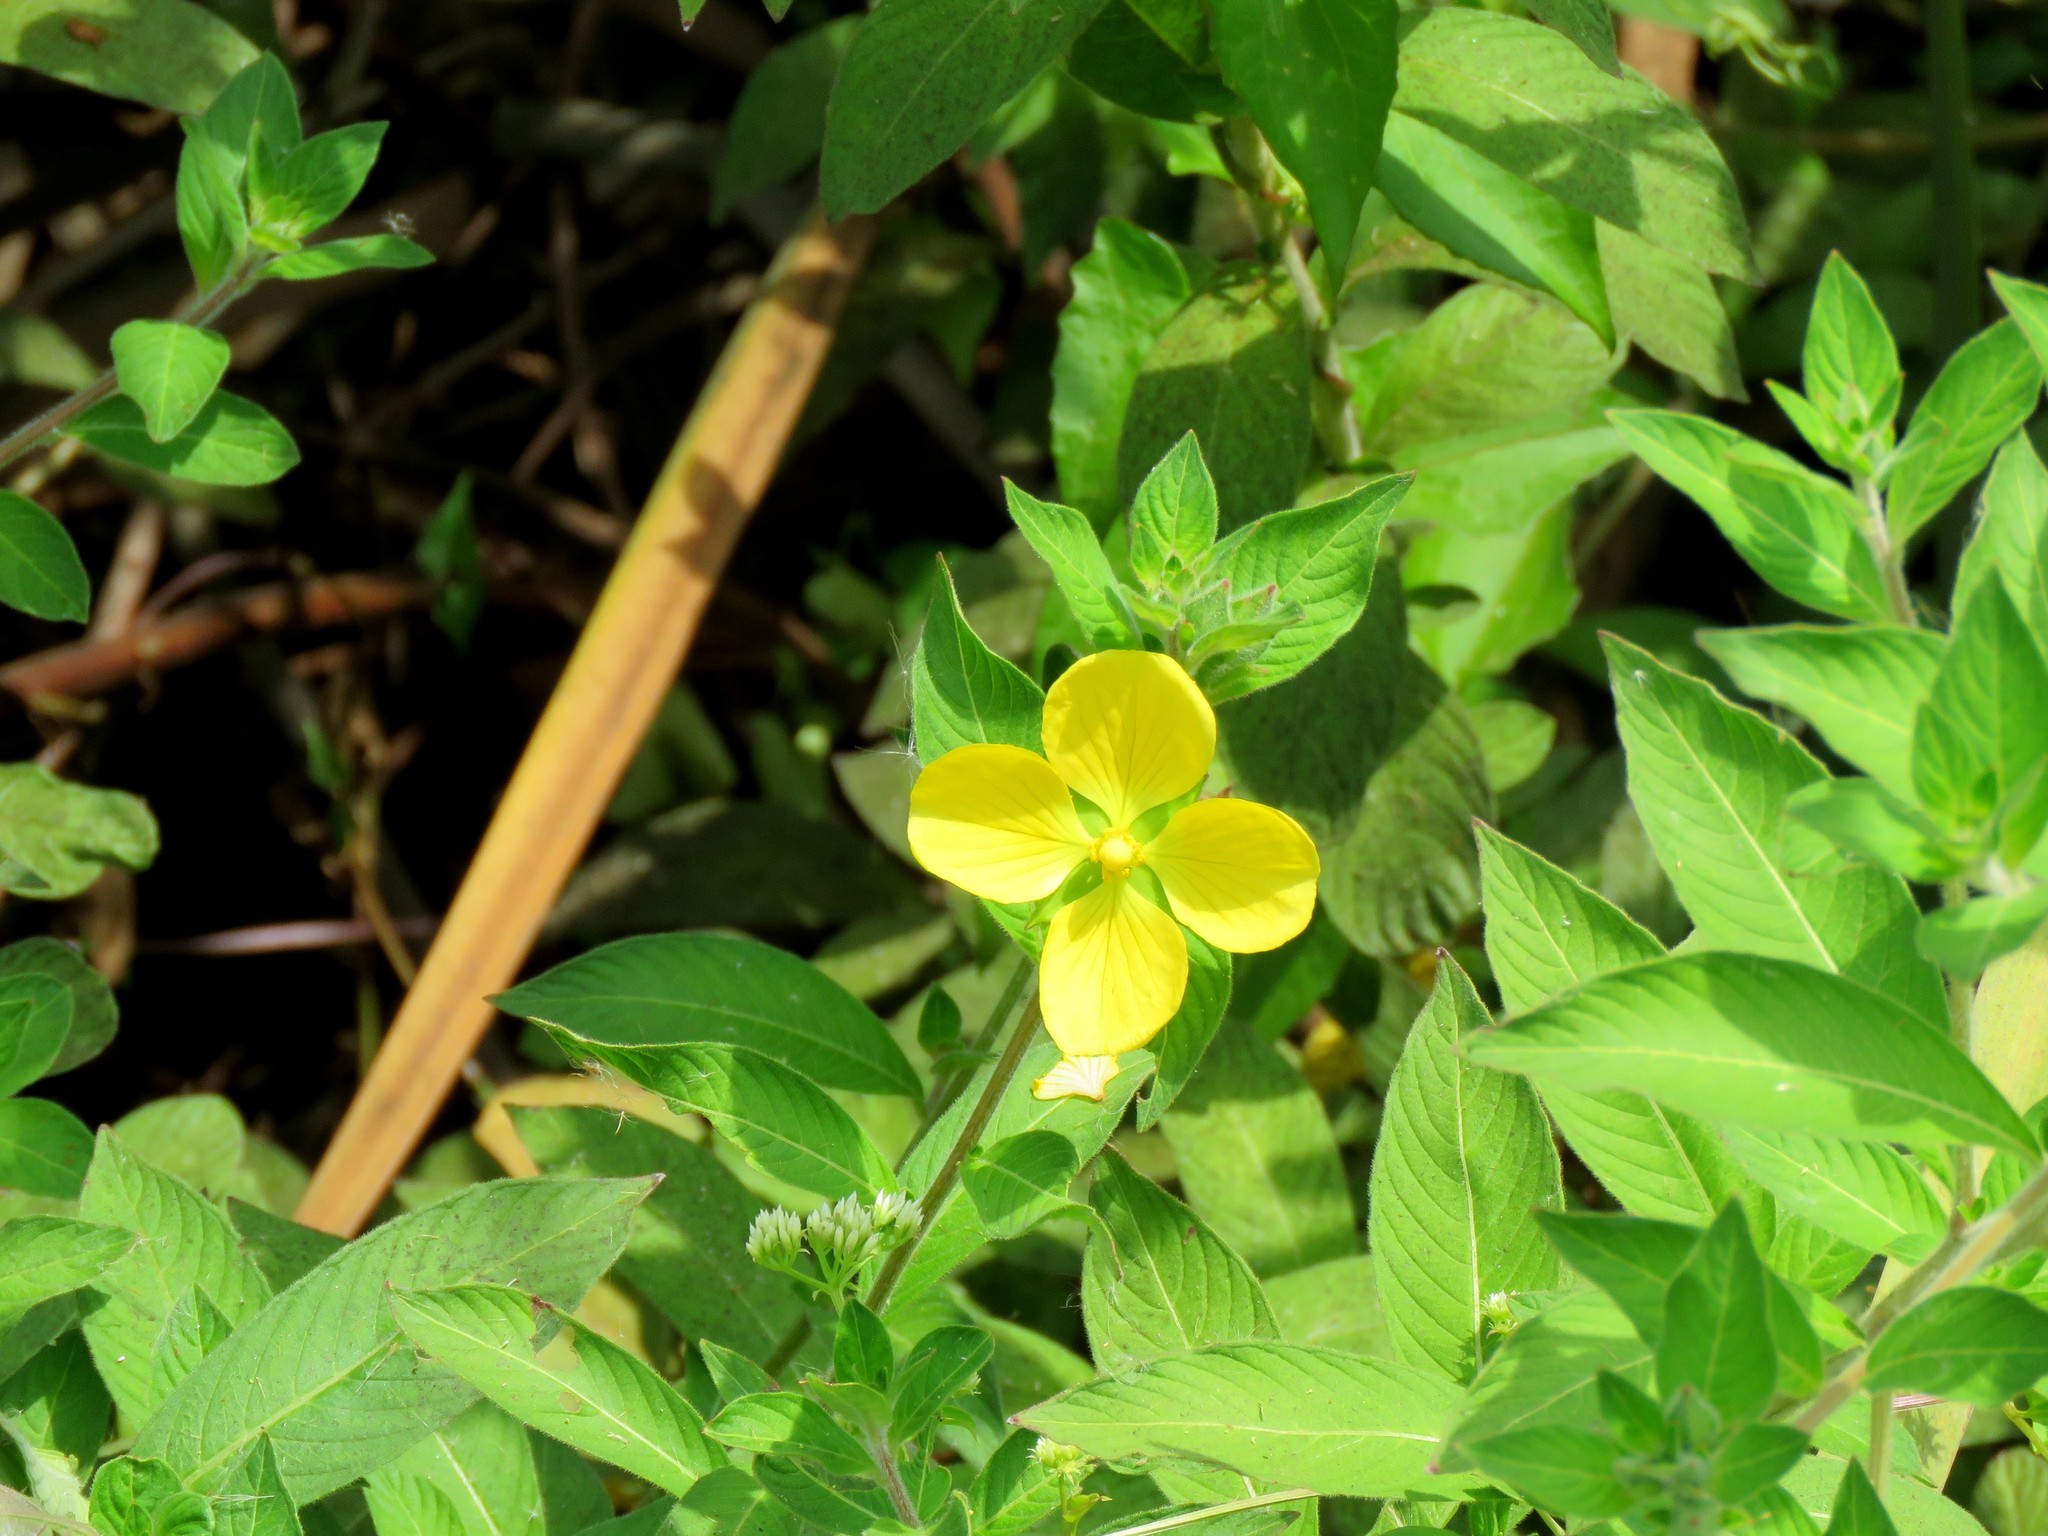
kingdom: Plantae
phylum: Tracheophyta
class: Magnoliopsida
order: Myrtales
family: Onagraceae
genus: Ludwigia
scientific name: Ludwigia bonariensis
